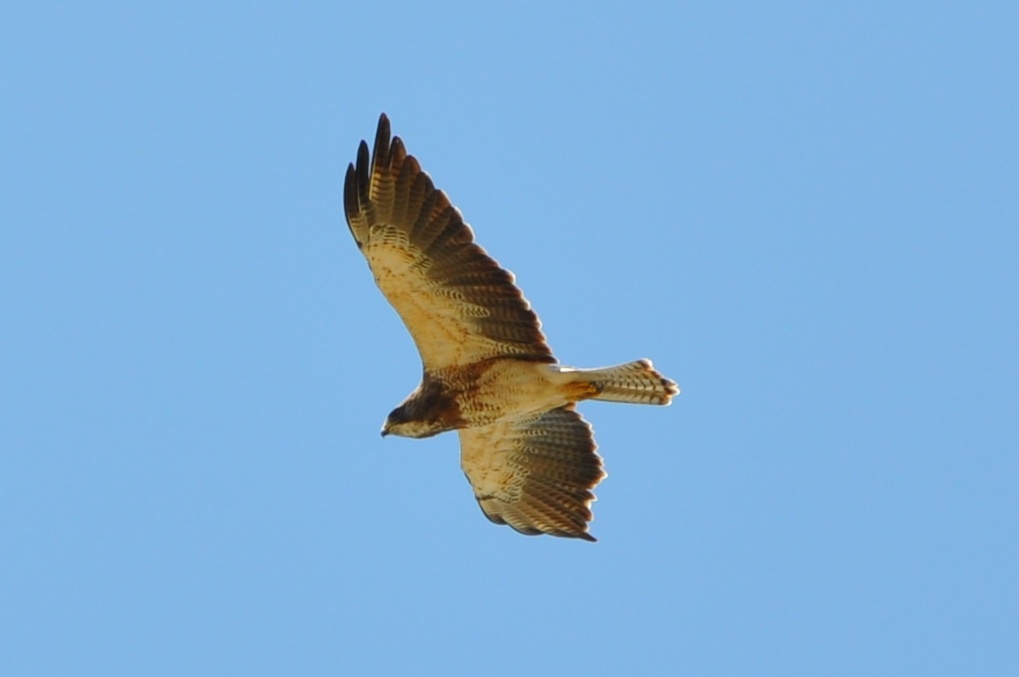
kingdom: Animalia
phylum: Chordata
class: Aves
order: Accipitriformes
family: Accipitridae
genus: Buteo
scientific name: Buteo swainsoni
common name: Swainson's hawk
